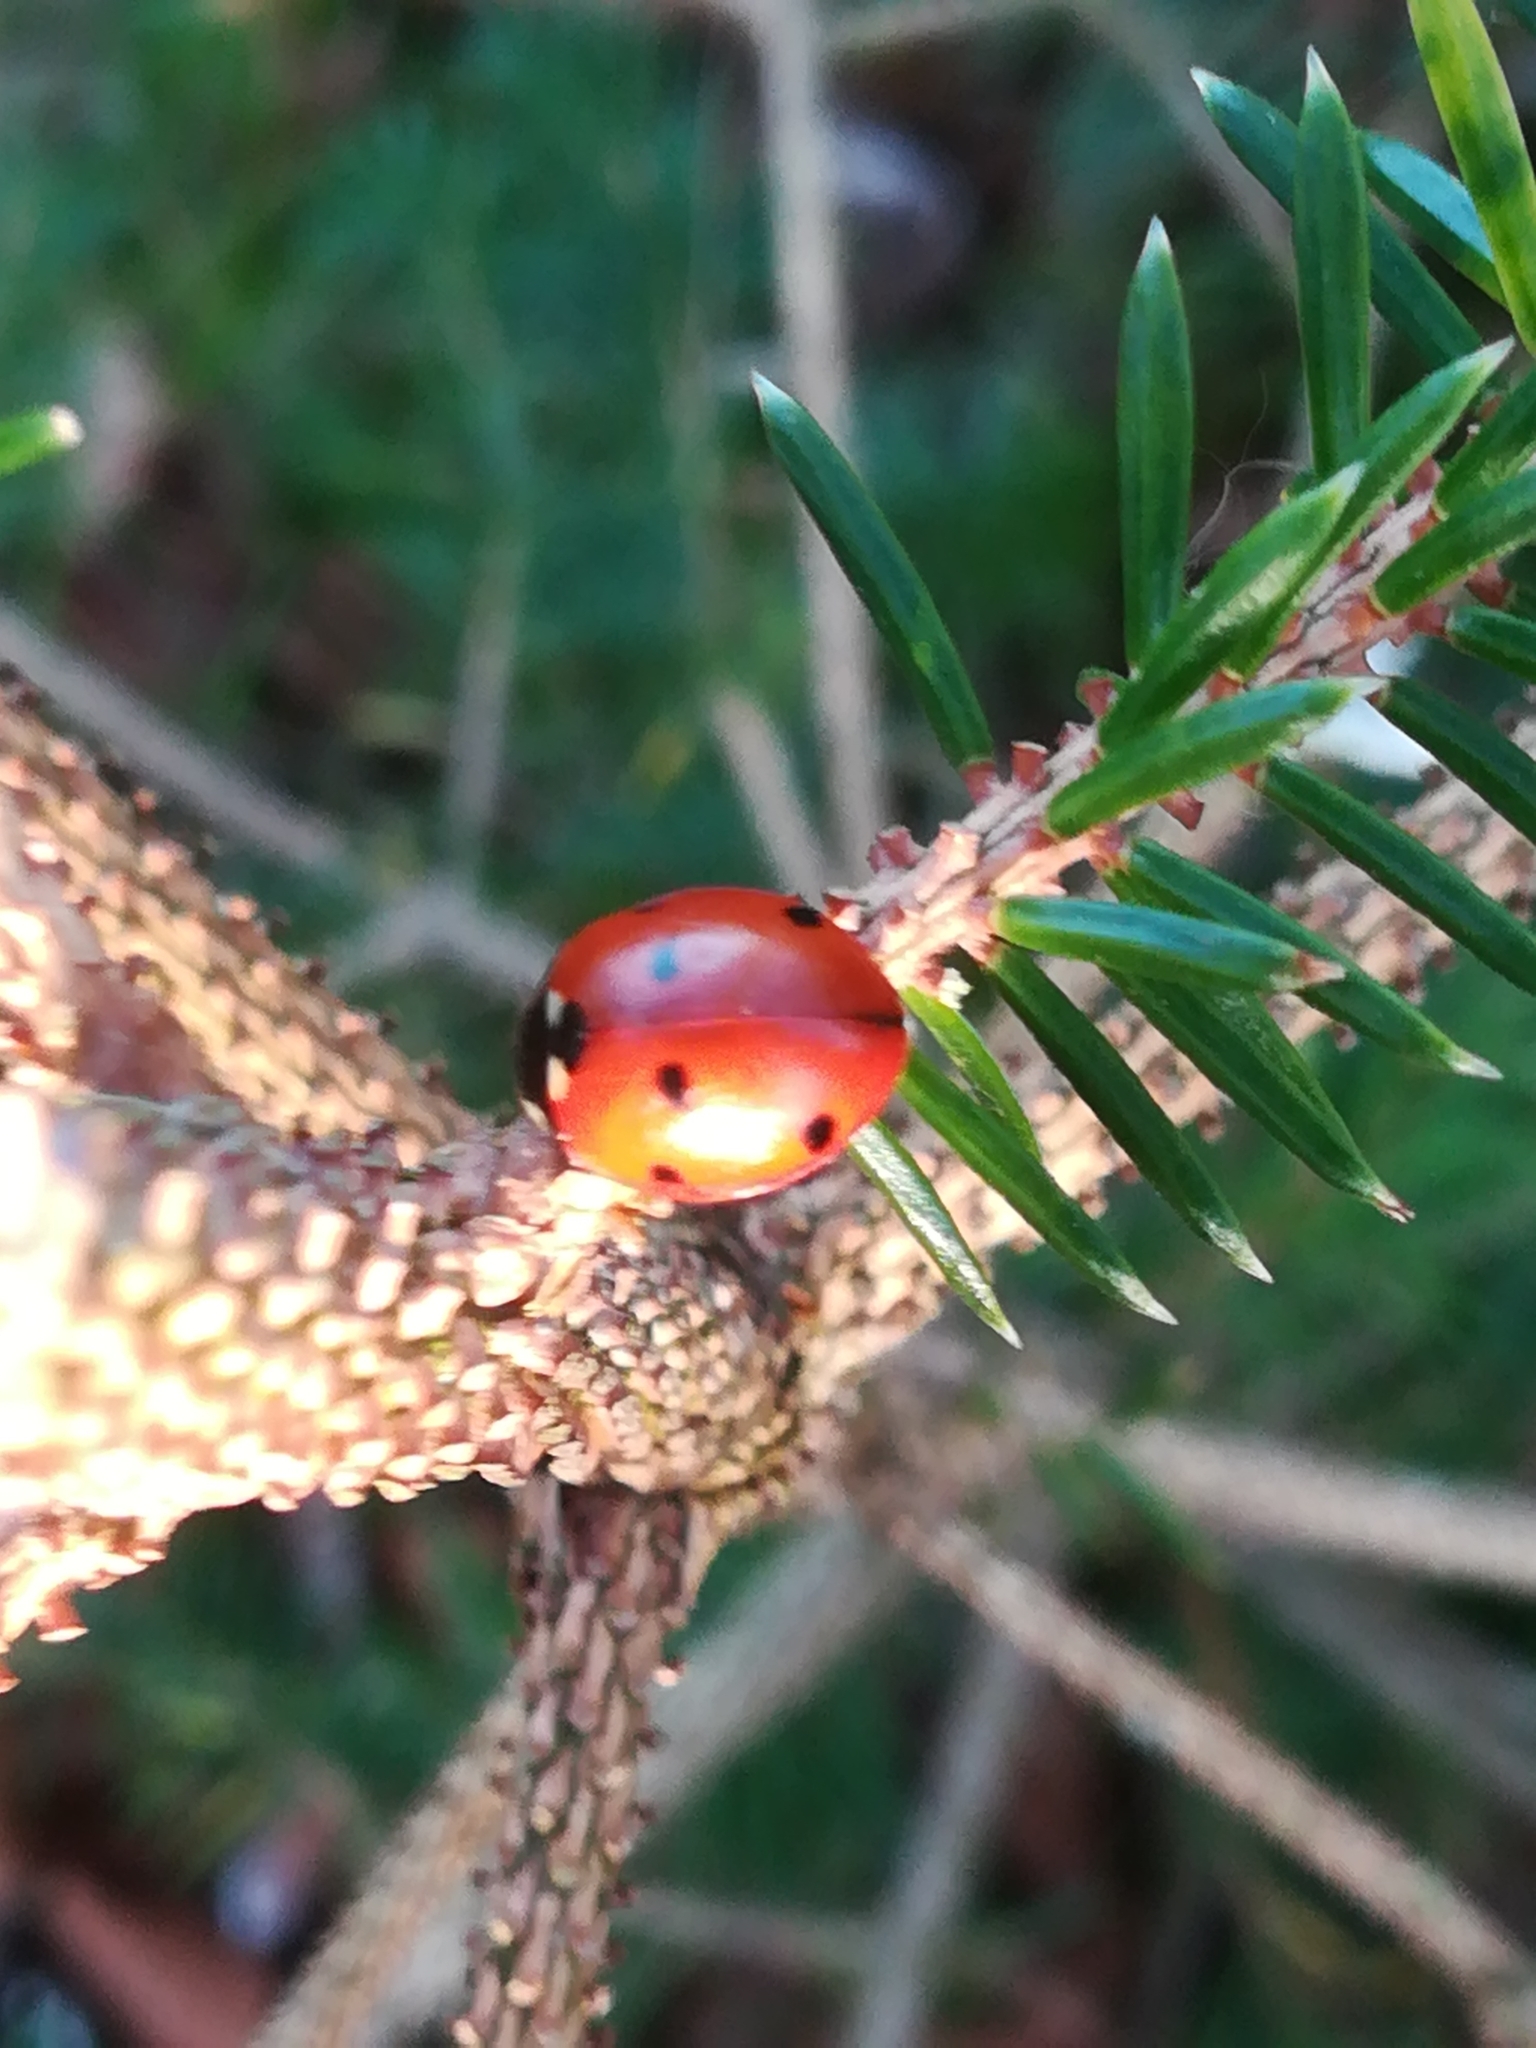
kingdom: Animalia
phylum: Arthropoda
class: Insecta
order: Coleoptera
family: Coccinellidae
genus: Coccinella
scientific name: Coccinella septempunctata
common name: Sevenspotted lady beetle
